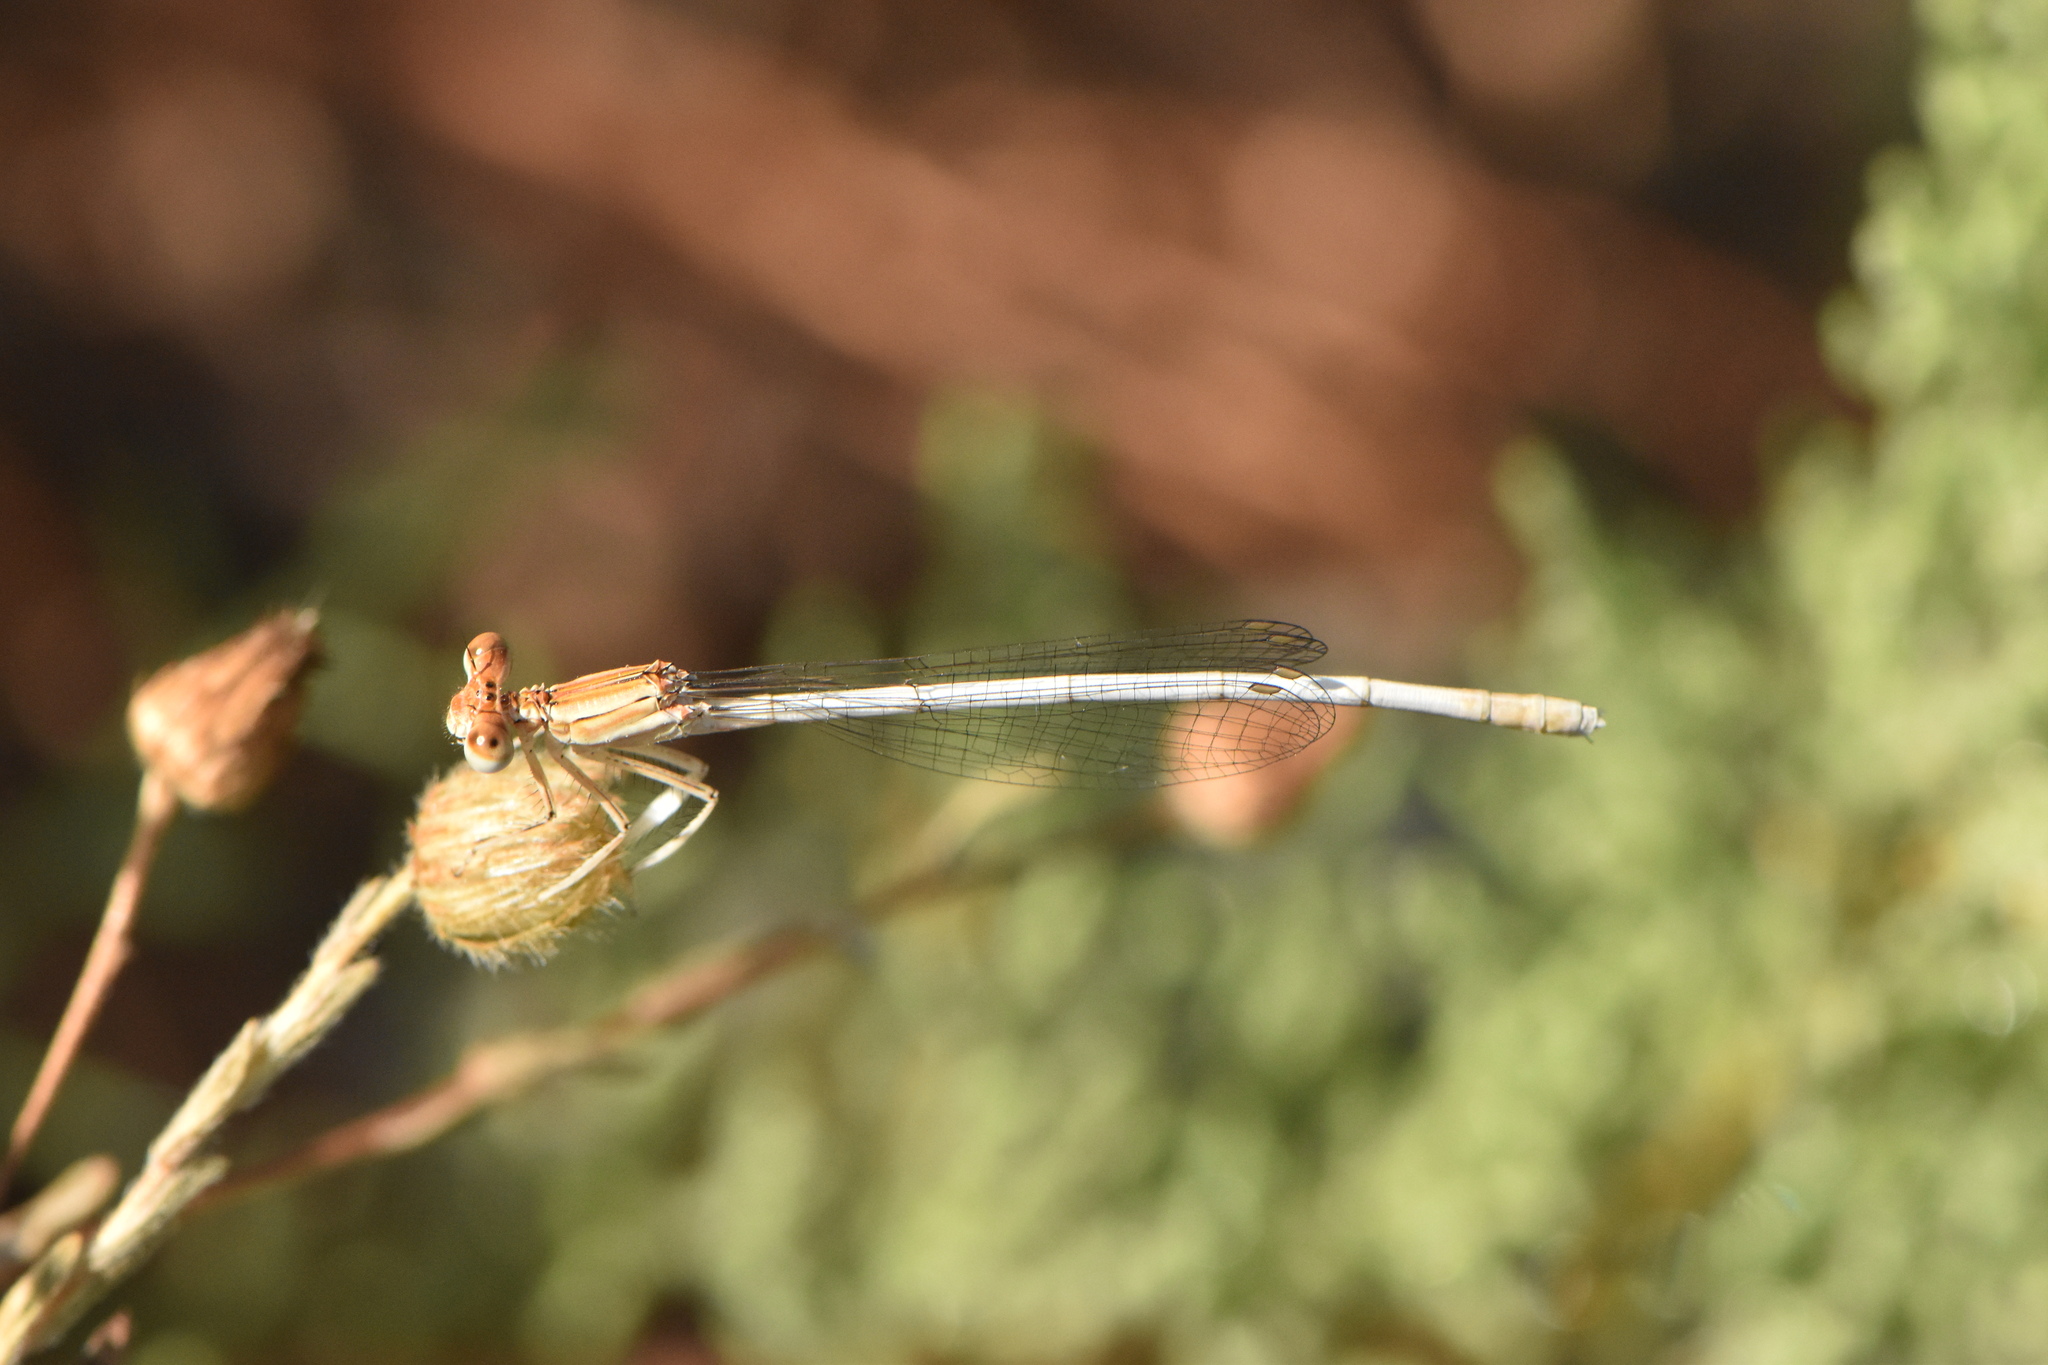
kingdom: Animalia
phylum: Arthropoda
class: Insecta
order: Odonata
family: Platycnemididae
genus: Platycnemis
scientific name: Platycnemis latipes
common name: White featherleg
